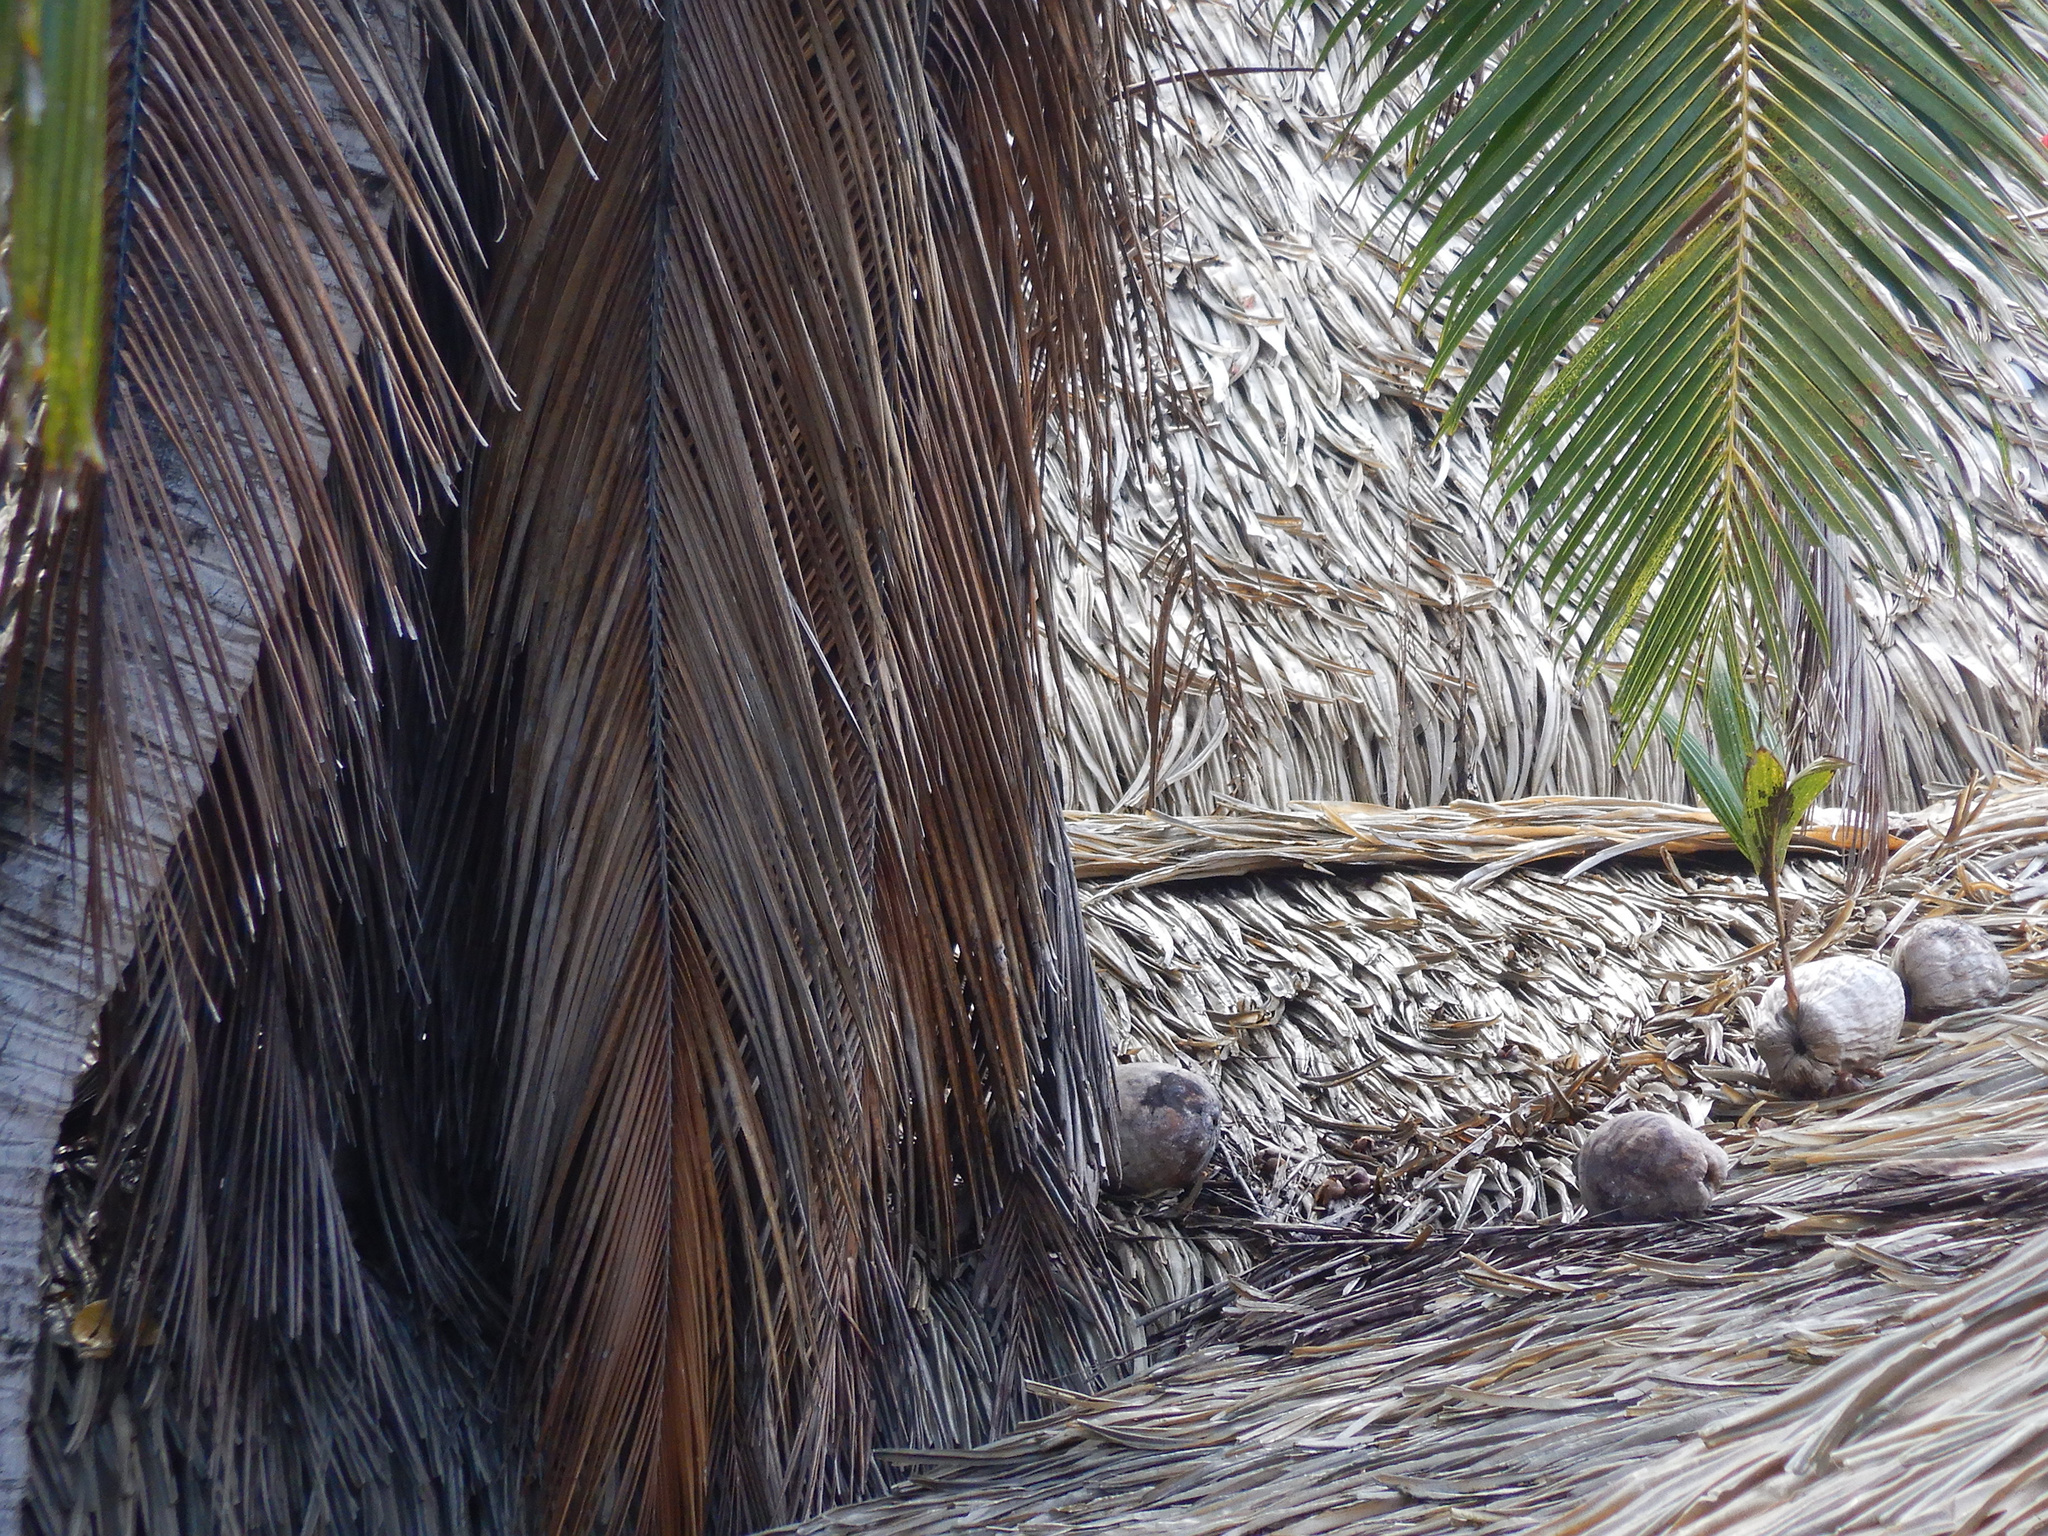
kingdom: Plantae
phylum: Tracheophyta
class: Liliopsida
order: Arecales
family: Arecaceae
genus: Cocos
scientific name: Cocos nucifera
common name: Coconut palm
